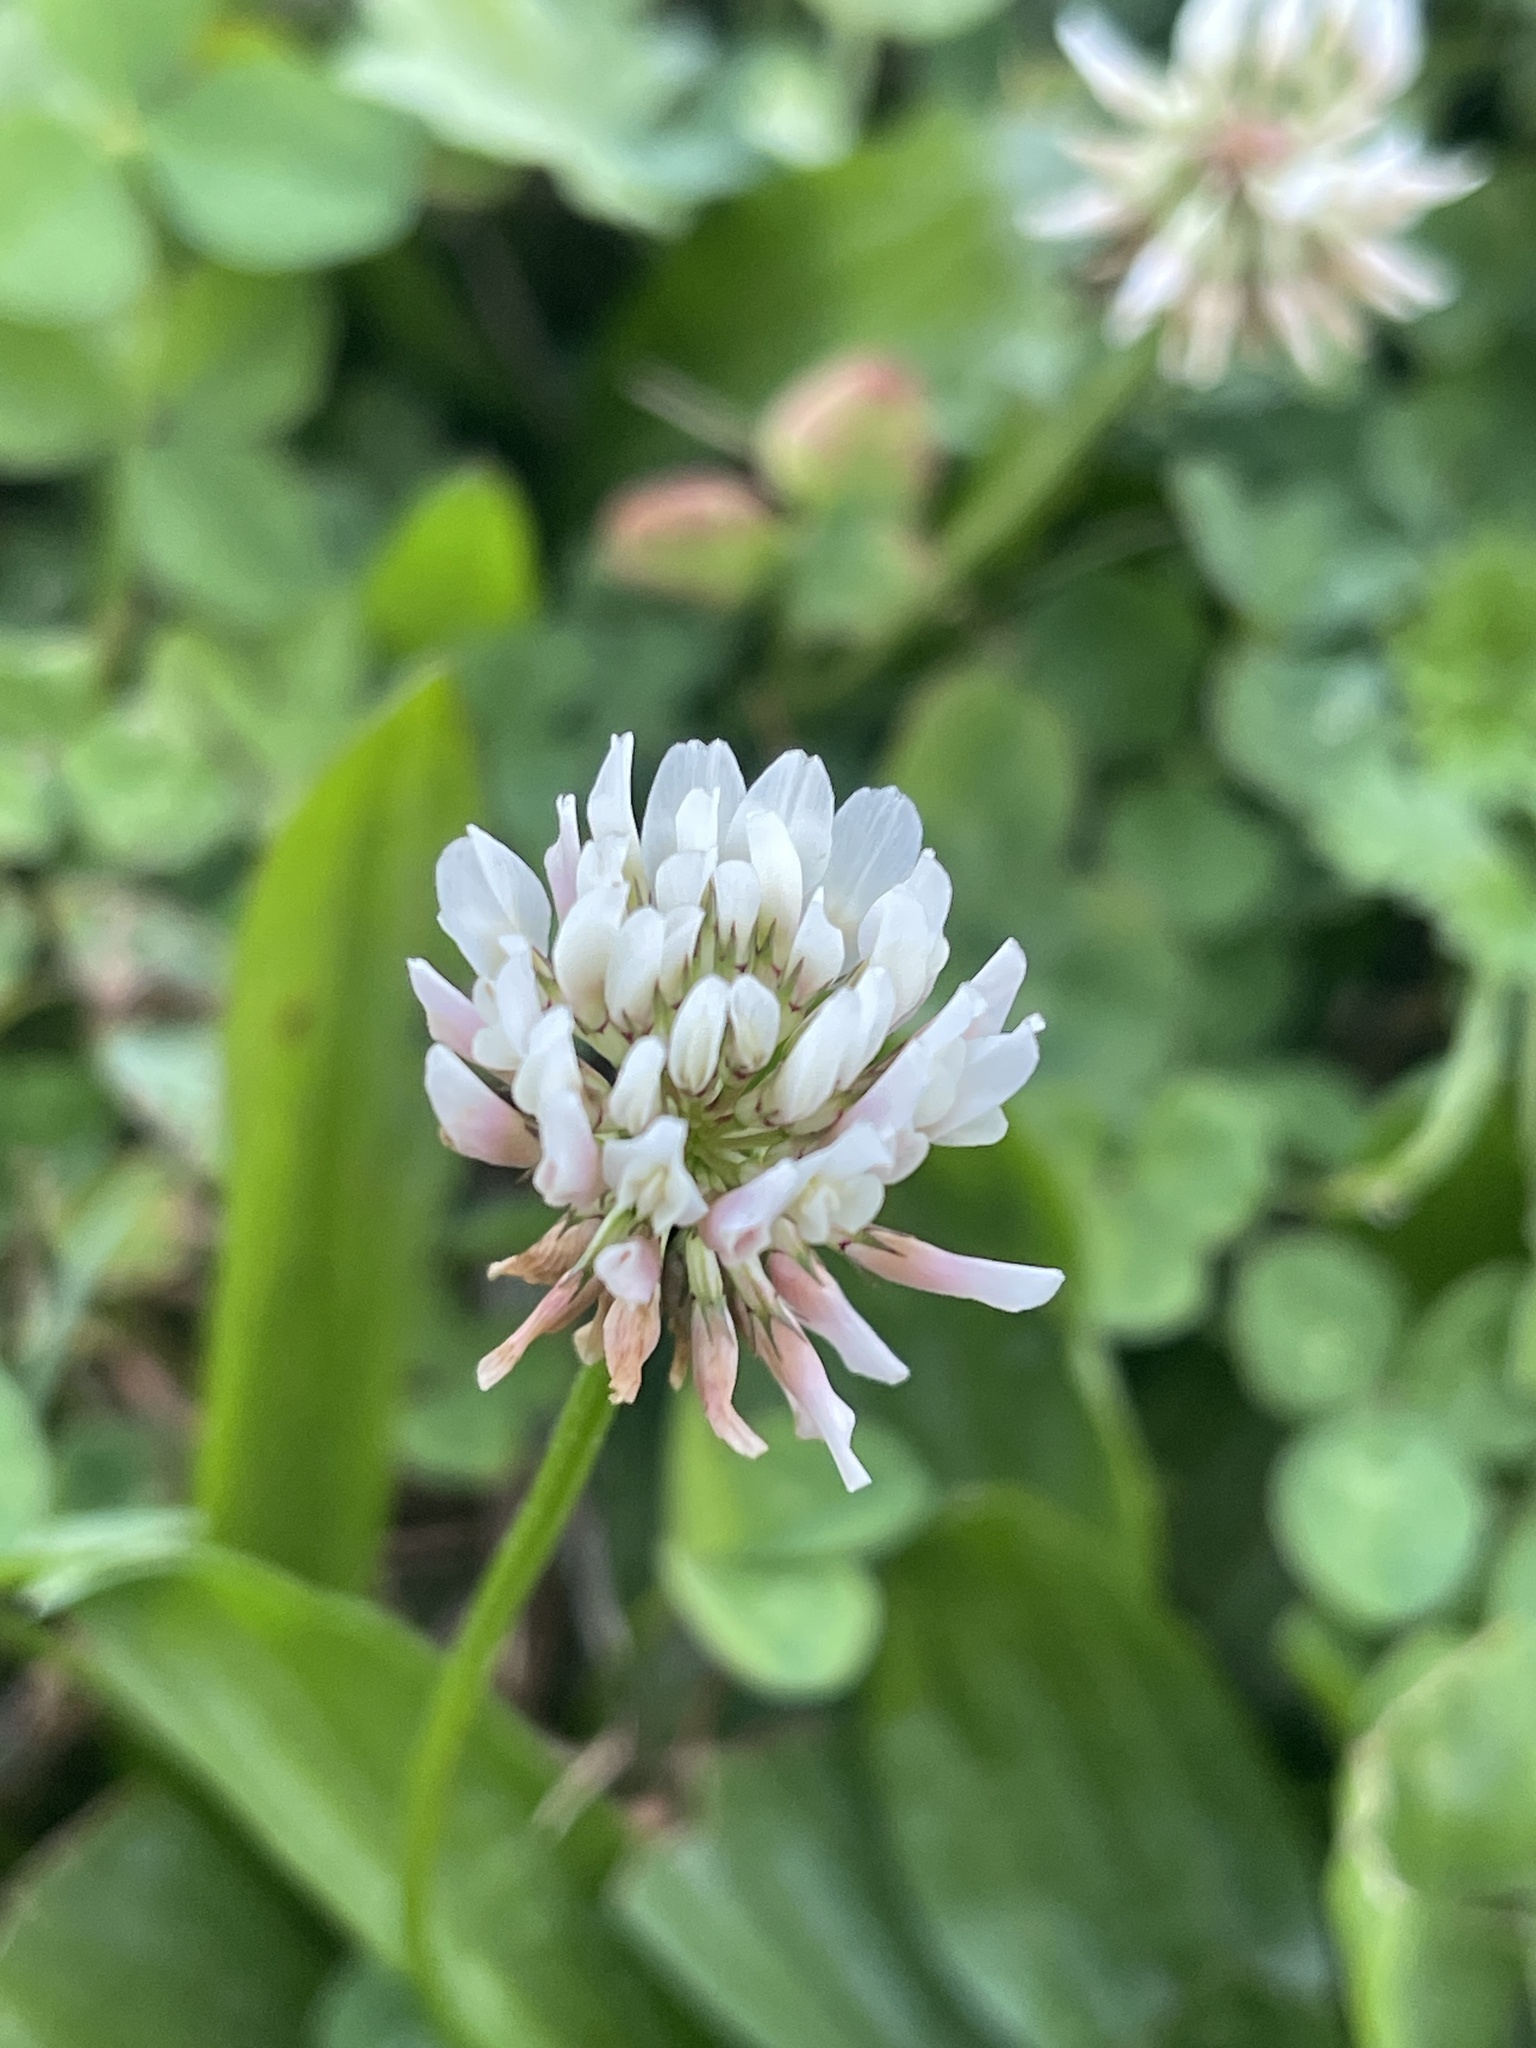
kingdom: Plantae
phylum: Tracheophyta
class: Magnoliopsida
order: Fabales
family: Fabaceae
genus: Trifolium
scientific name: Trifolium repens
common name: White clover
